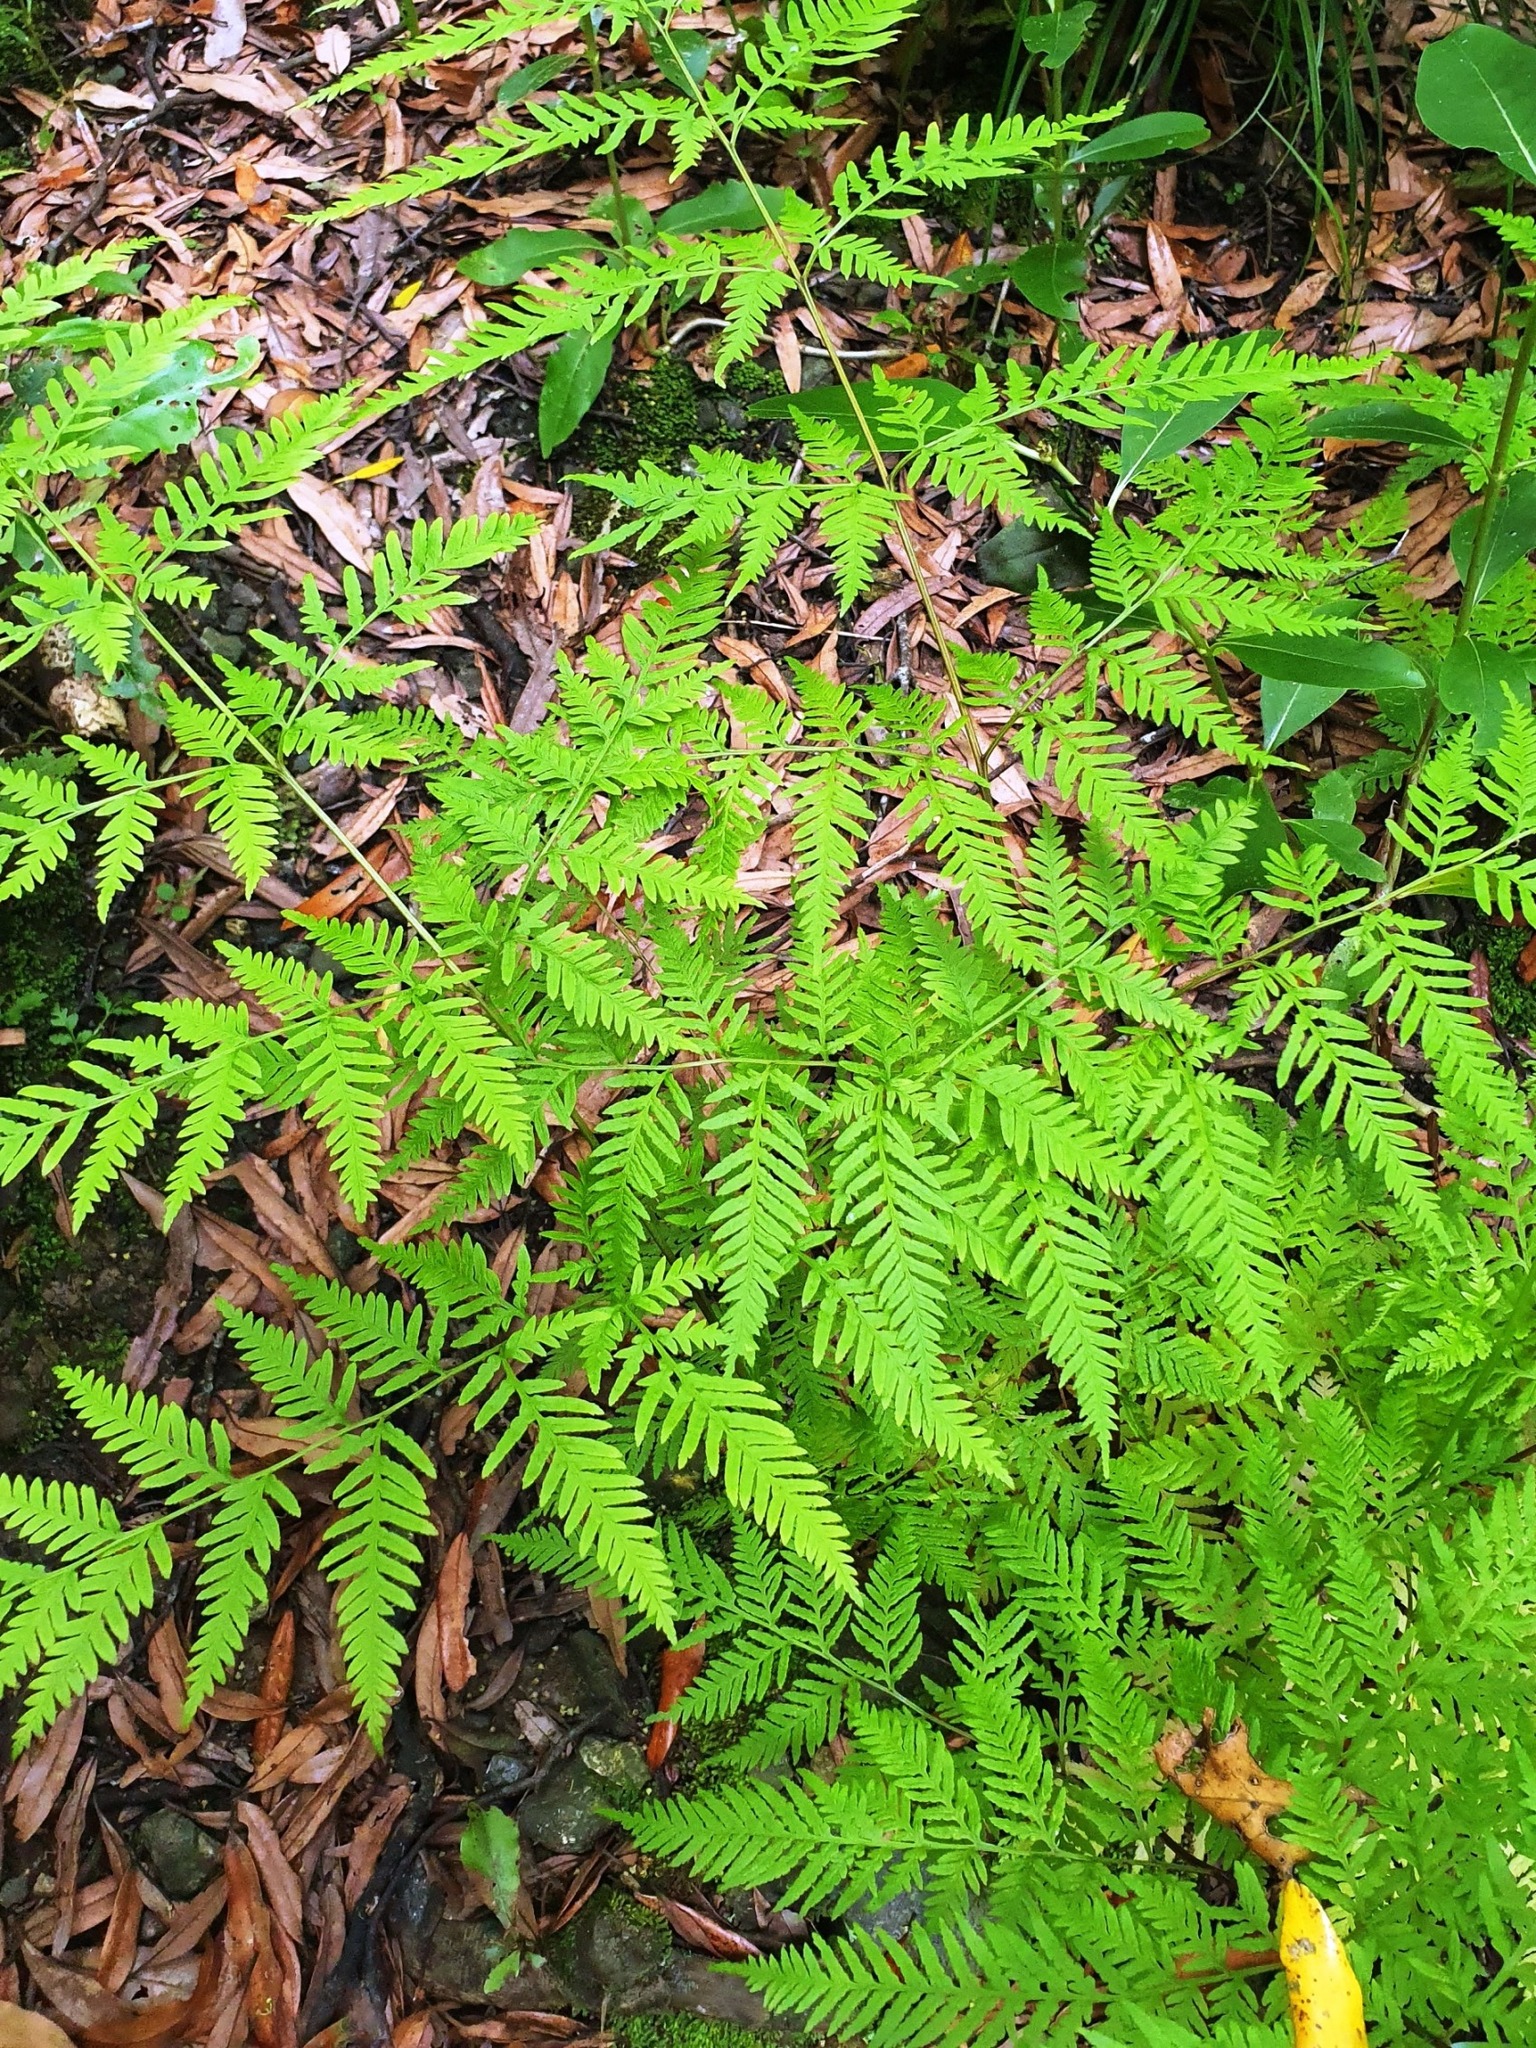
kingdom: Plantae
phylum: Tracheophyta
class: Polypodiopsida
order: Polypodiales
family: Pteridaceae
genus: Pteris
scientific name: Pteris tremula
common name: Australian brake
